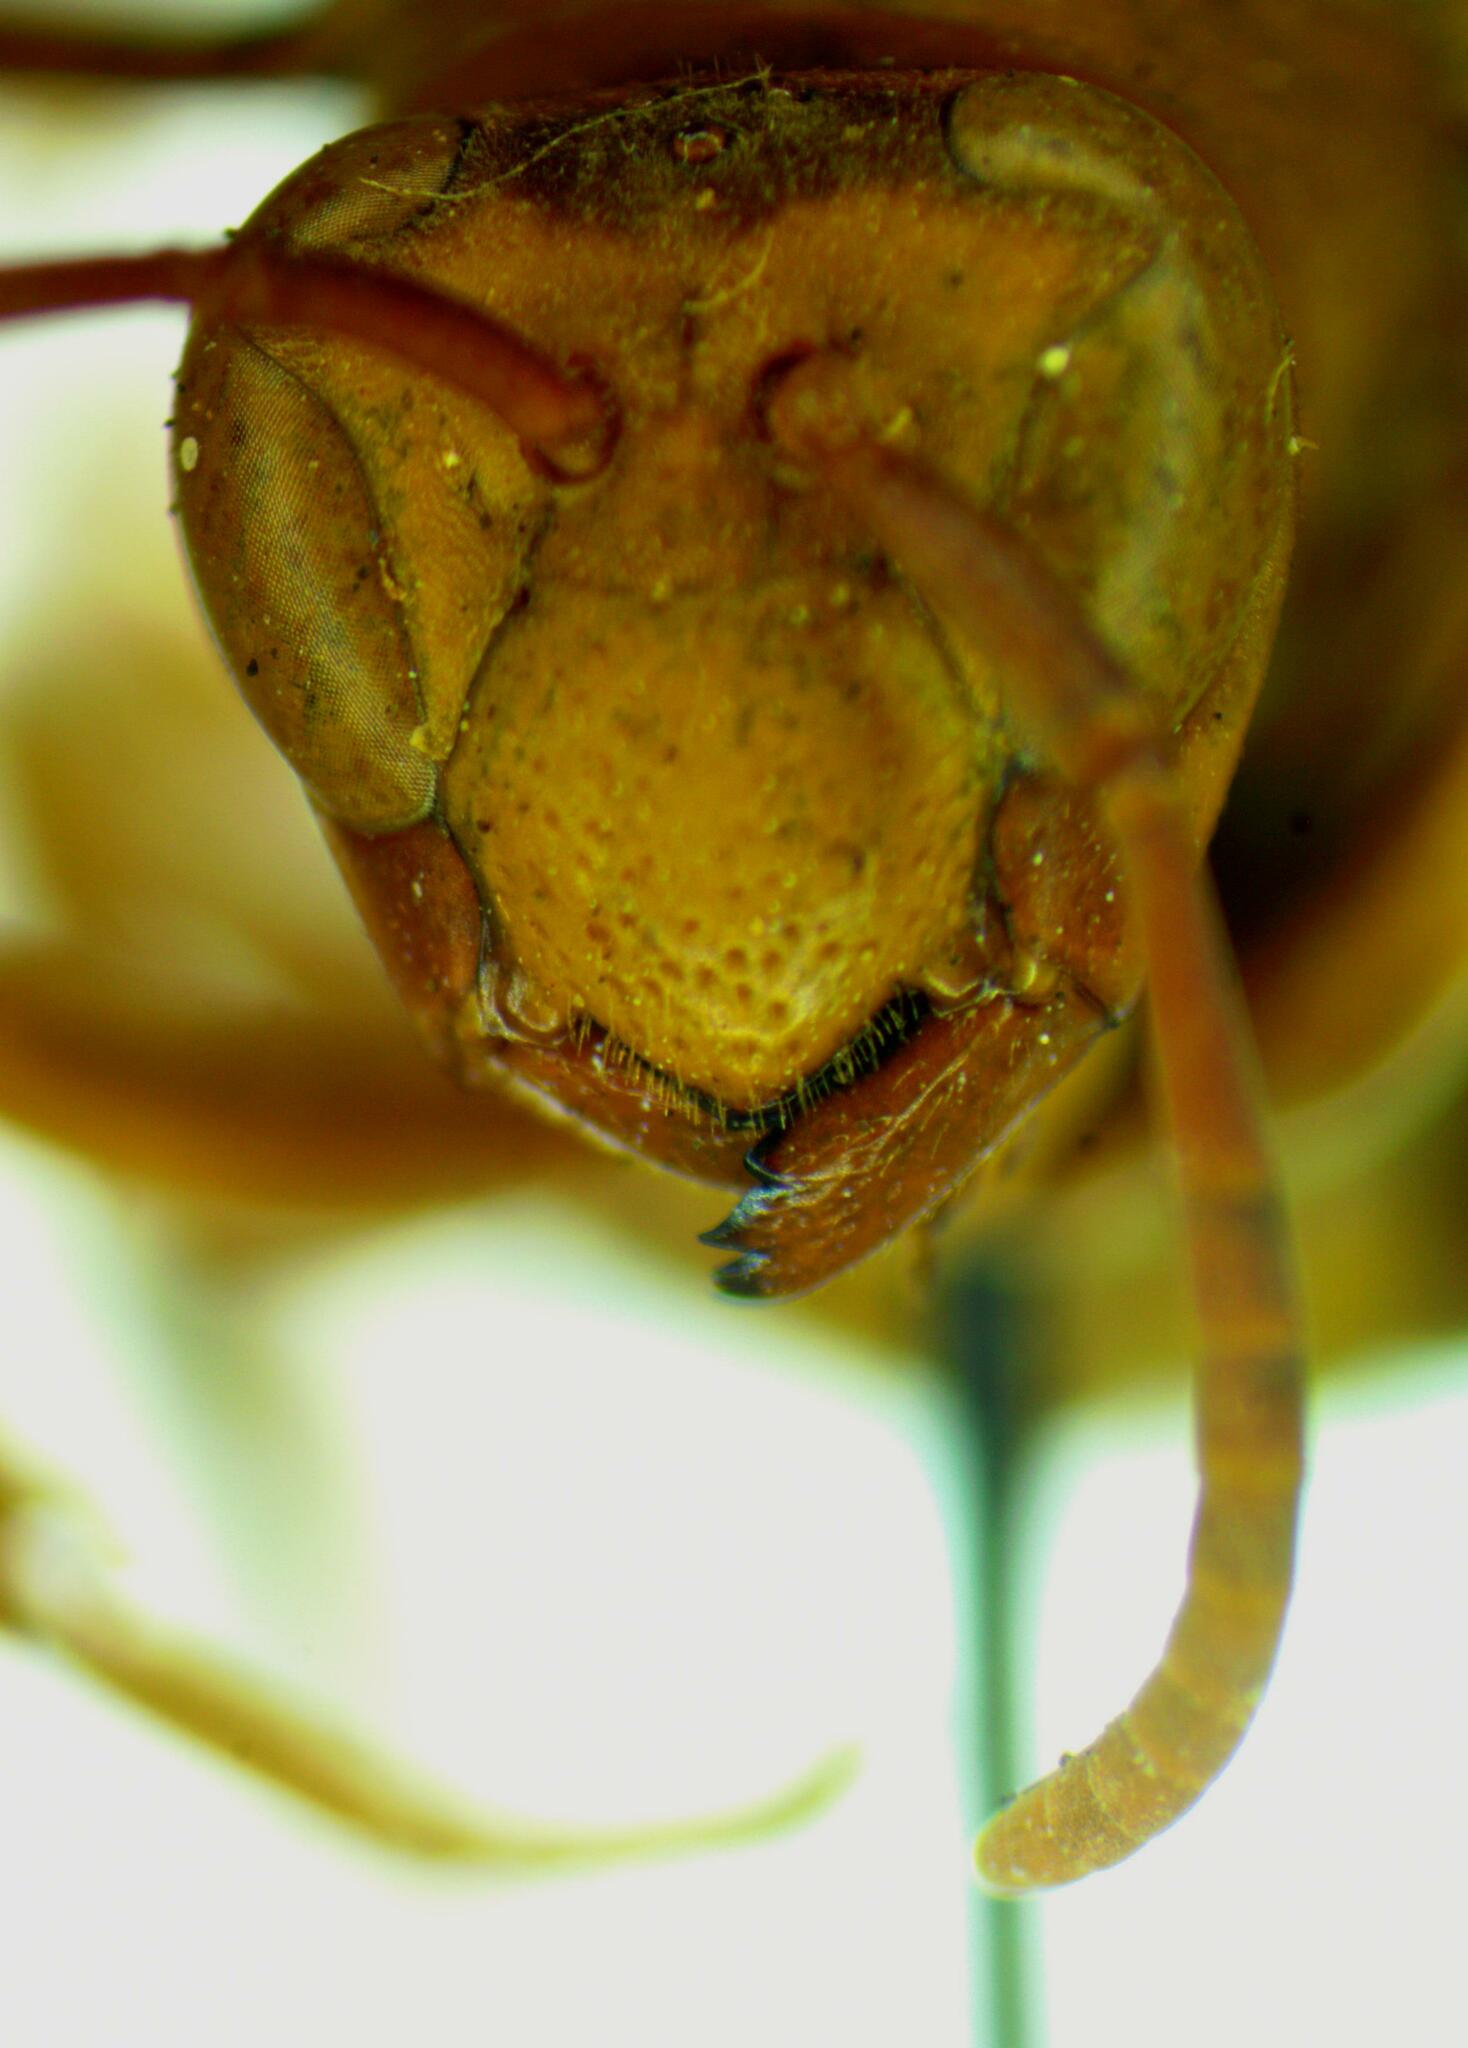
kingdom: Animalia
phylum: Arthropoda
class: Insecta
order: Hymenoptera
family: Eumenidae
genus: Polistes
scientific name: Polistes major
